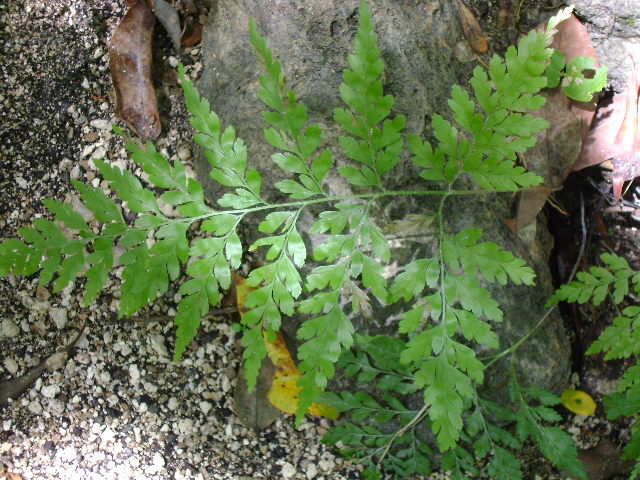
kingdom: Plantae
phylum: Tracheophyta
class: Polypodiopsida
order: Schizaeales
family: Anemiaceae
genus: Anemia
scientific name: Anemia adiantifolia
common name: Pine fern
